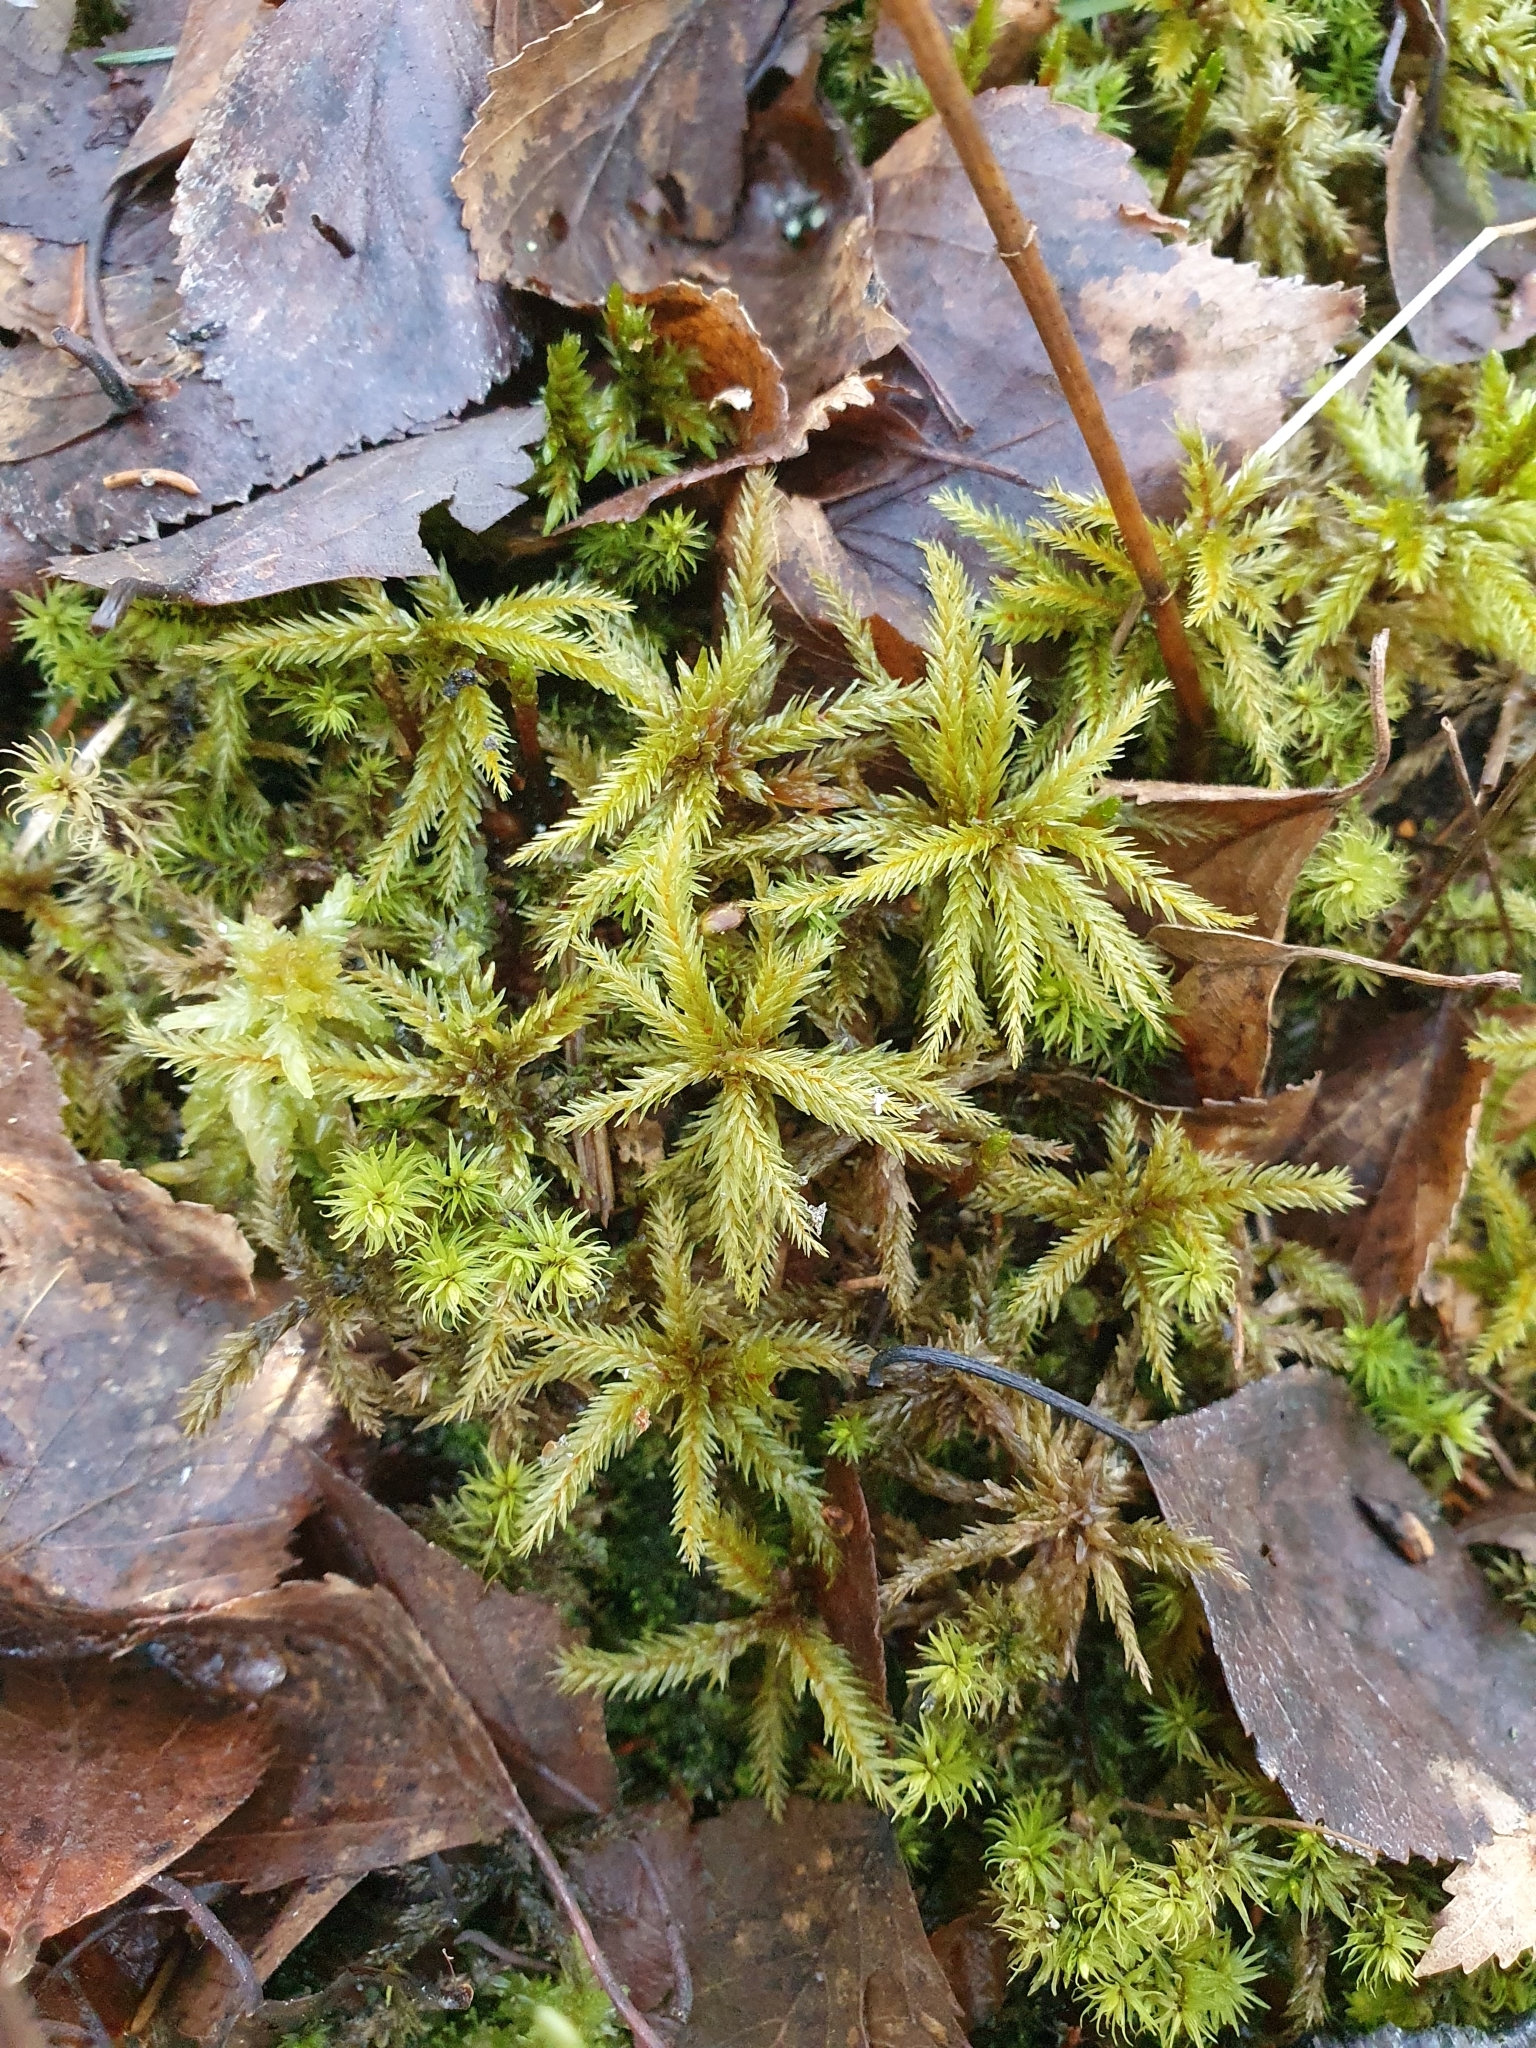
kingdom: Plantae
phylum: Bryophyta
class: Bryopsida
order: Hypnales
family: Climaciaceae
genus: Climacium
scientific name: Climacium dendroides
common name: Northern tree moss
